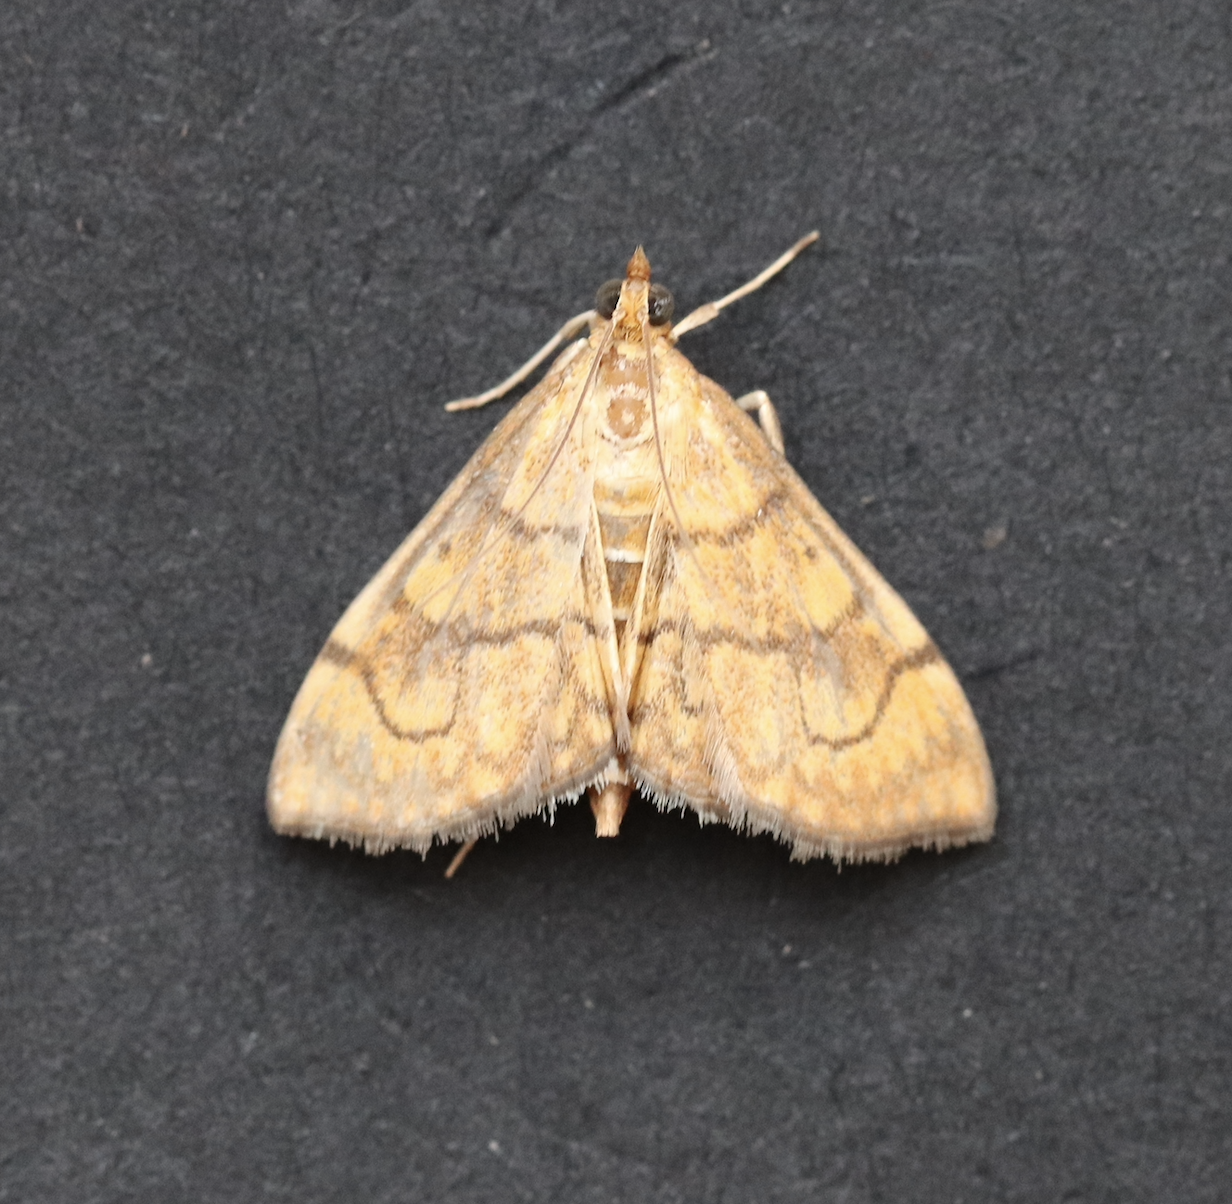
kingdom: Animalia
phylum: Arthropoda
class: Insecta
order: Lepidoptera
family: Crambidae
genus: Anania
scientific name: Anania verbascalis
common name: Golden pearl
